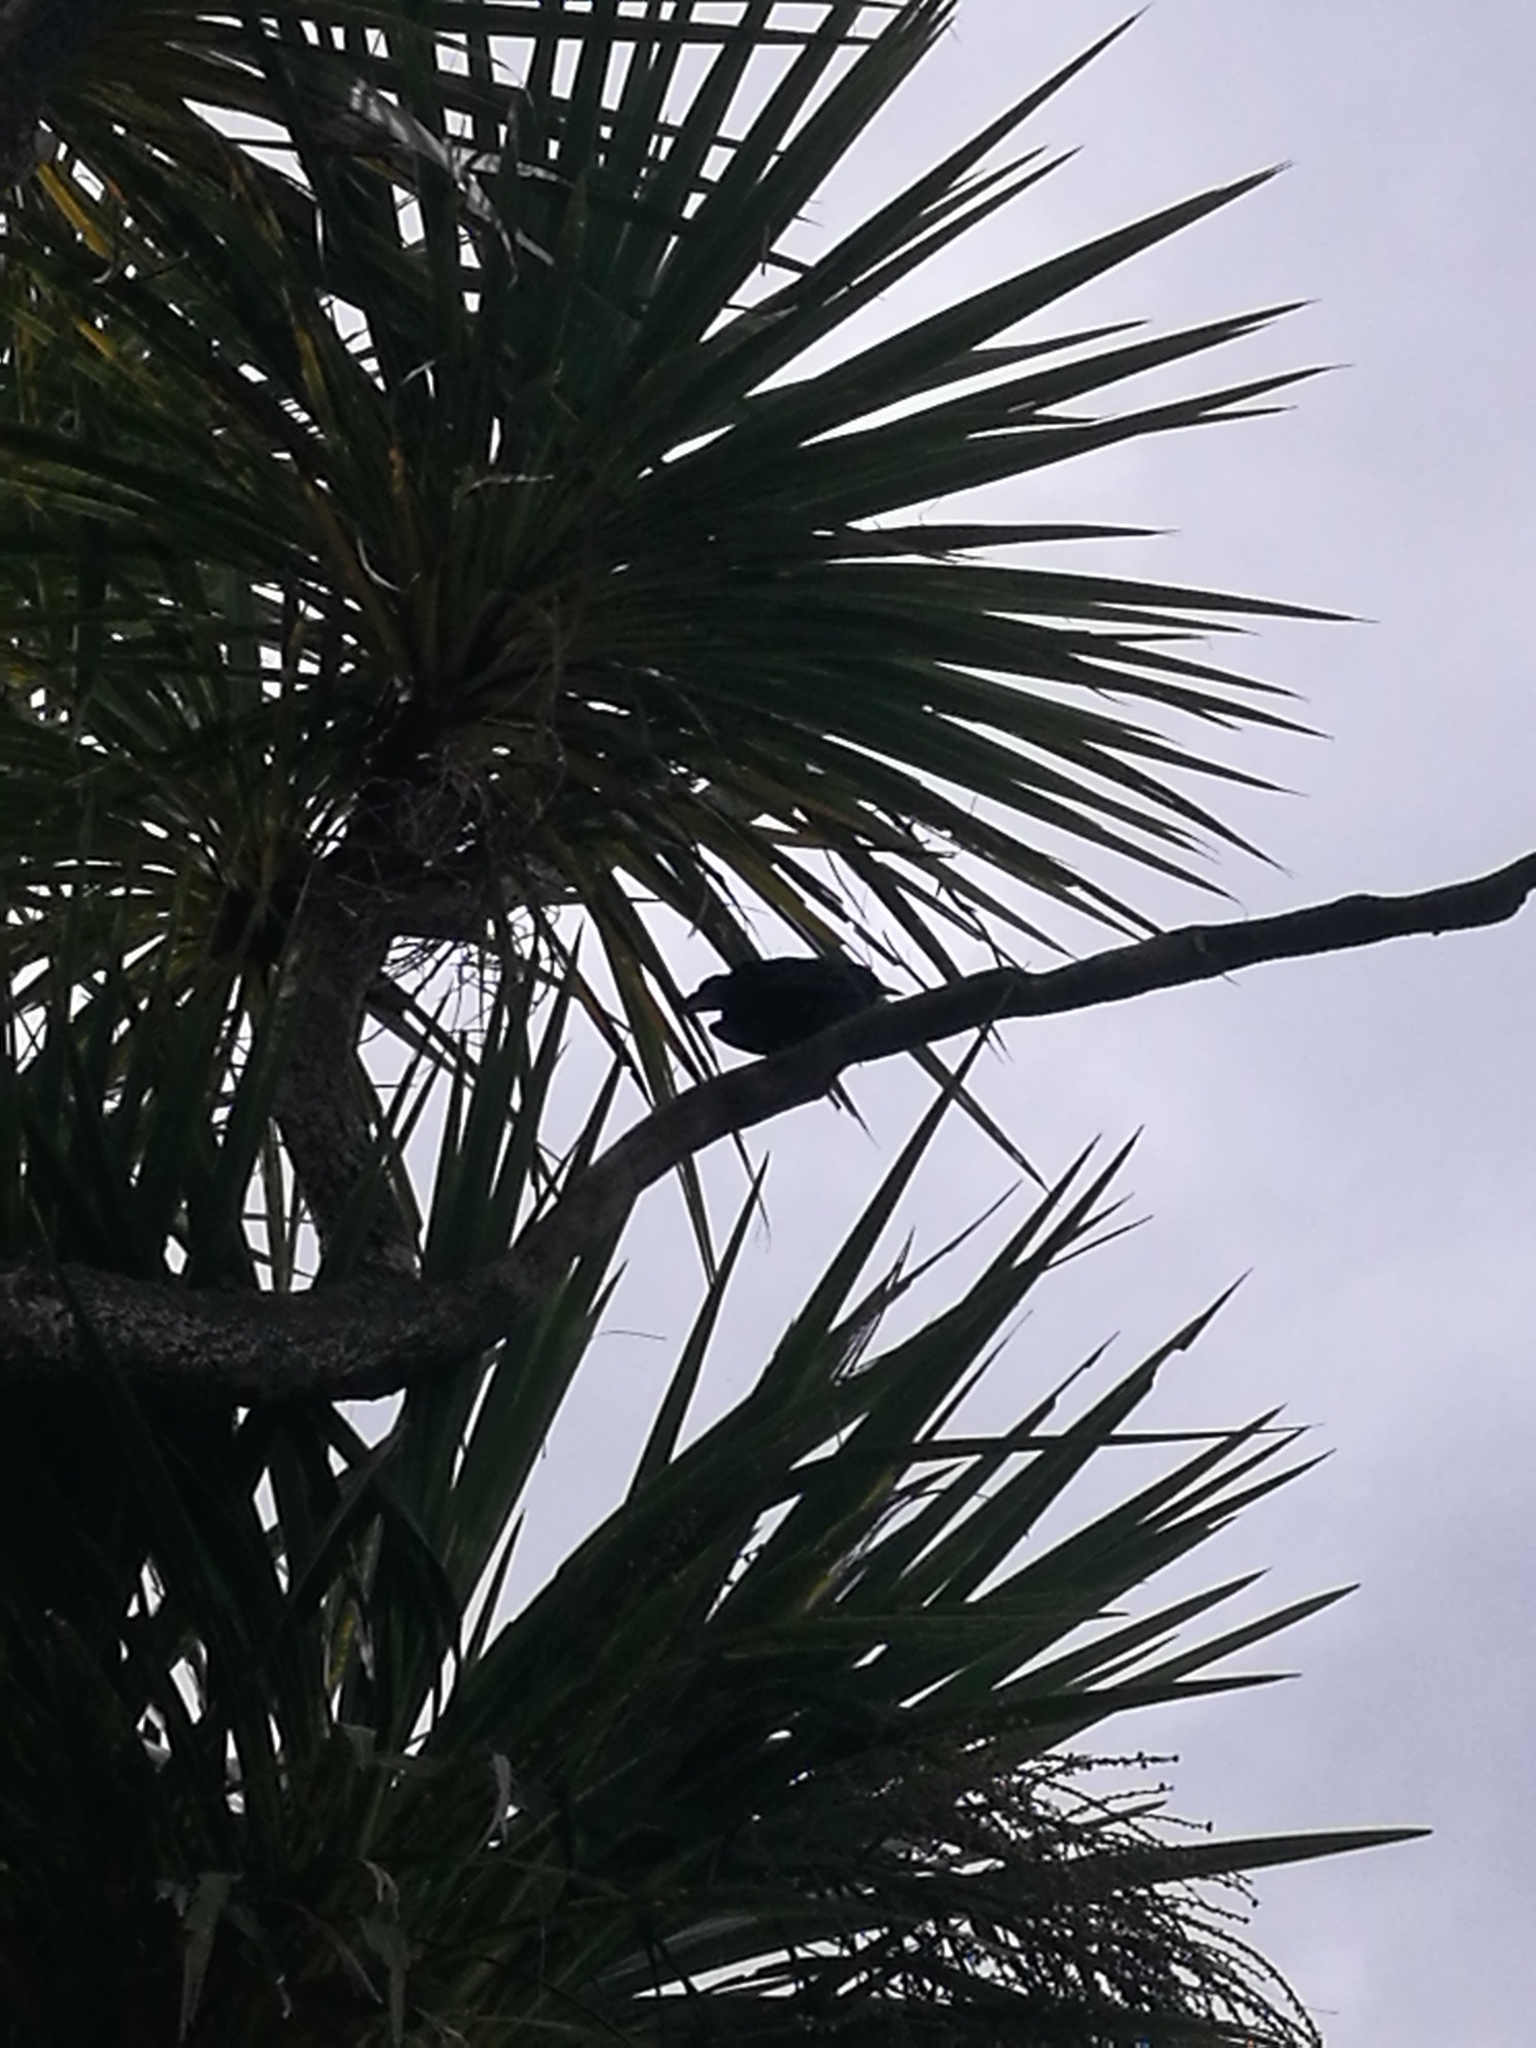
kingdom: Animalia
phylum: Chordata
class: Aves
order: Passeriformes
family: Turdidae
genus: Turdus
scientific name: Turdus merula
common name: Common blackbird
